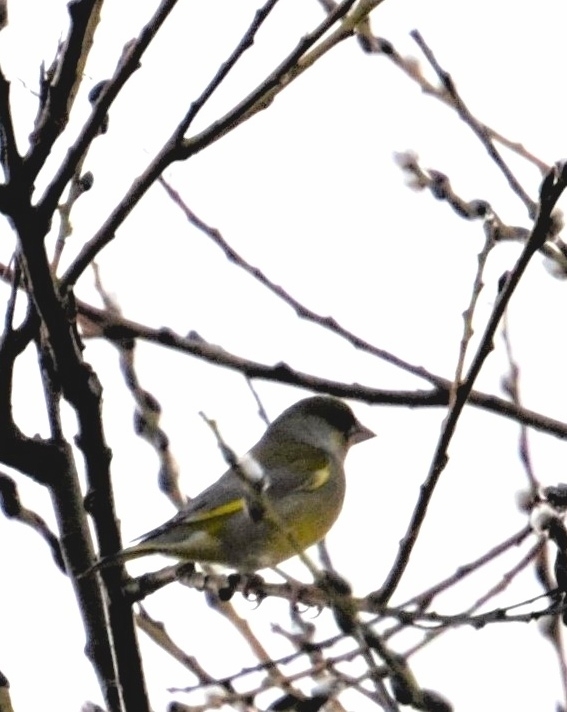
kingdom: Plantae
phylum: Tracheophyta
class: Liliopsida
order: Poales
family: Poaceae
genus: Chloris
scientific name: Chloris chloris
